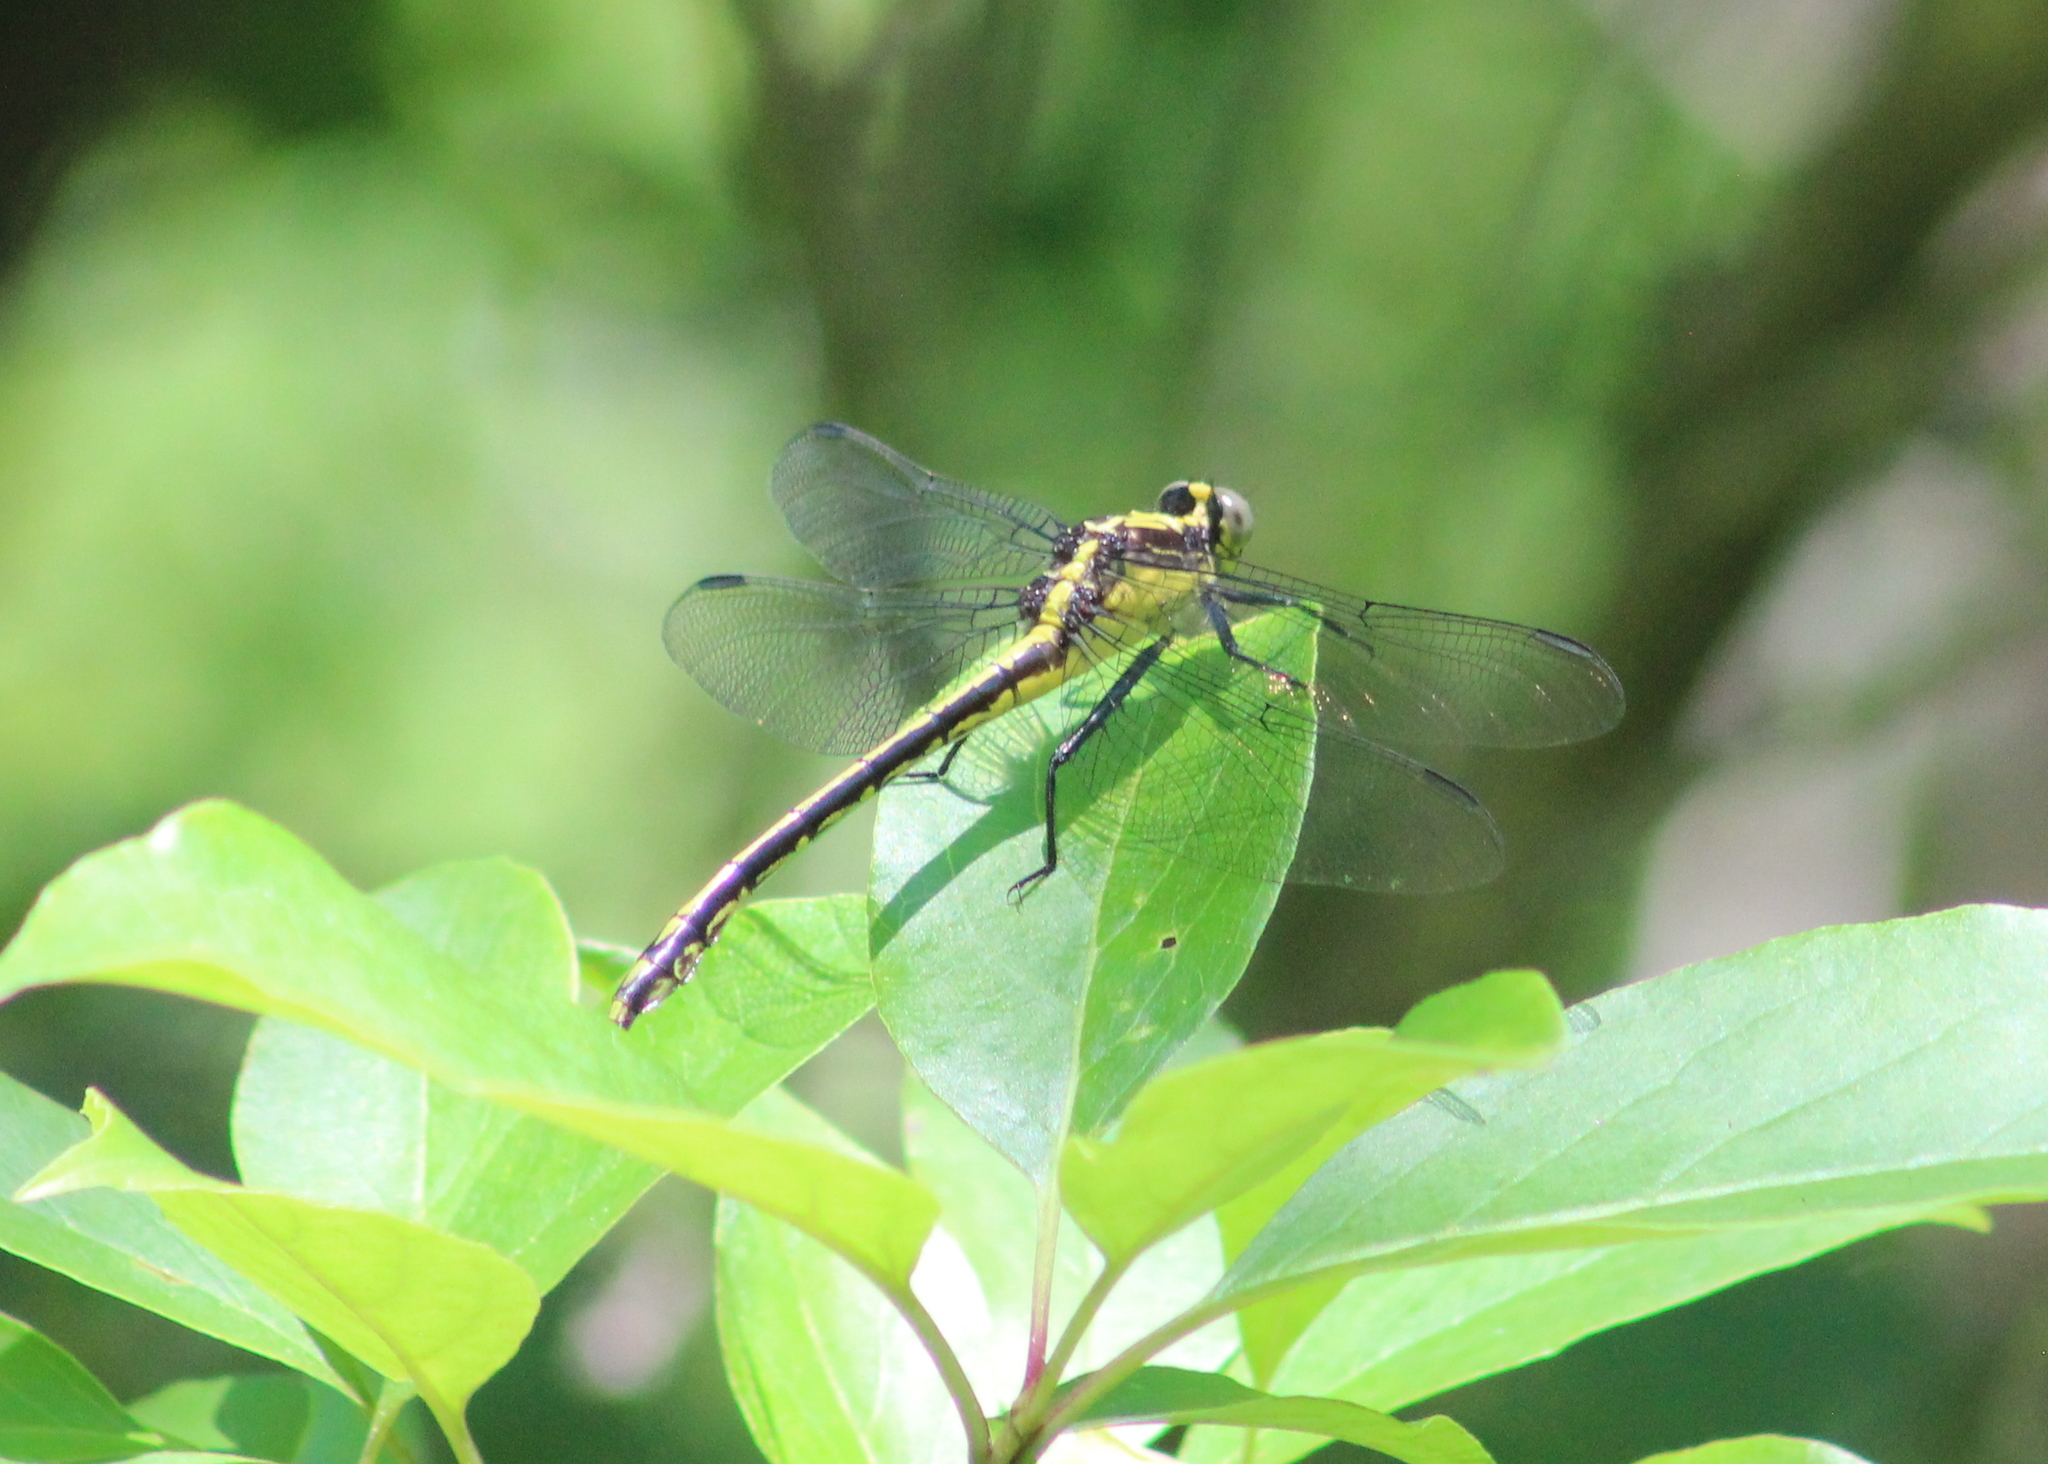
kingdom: Animalia
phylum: Arthropoda
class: Insecta
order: Odonata
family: Gomphidae
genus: Dromogomphus
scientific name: Dromogomphus spinosus
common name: Black-shouldered spinyleg
